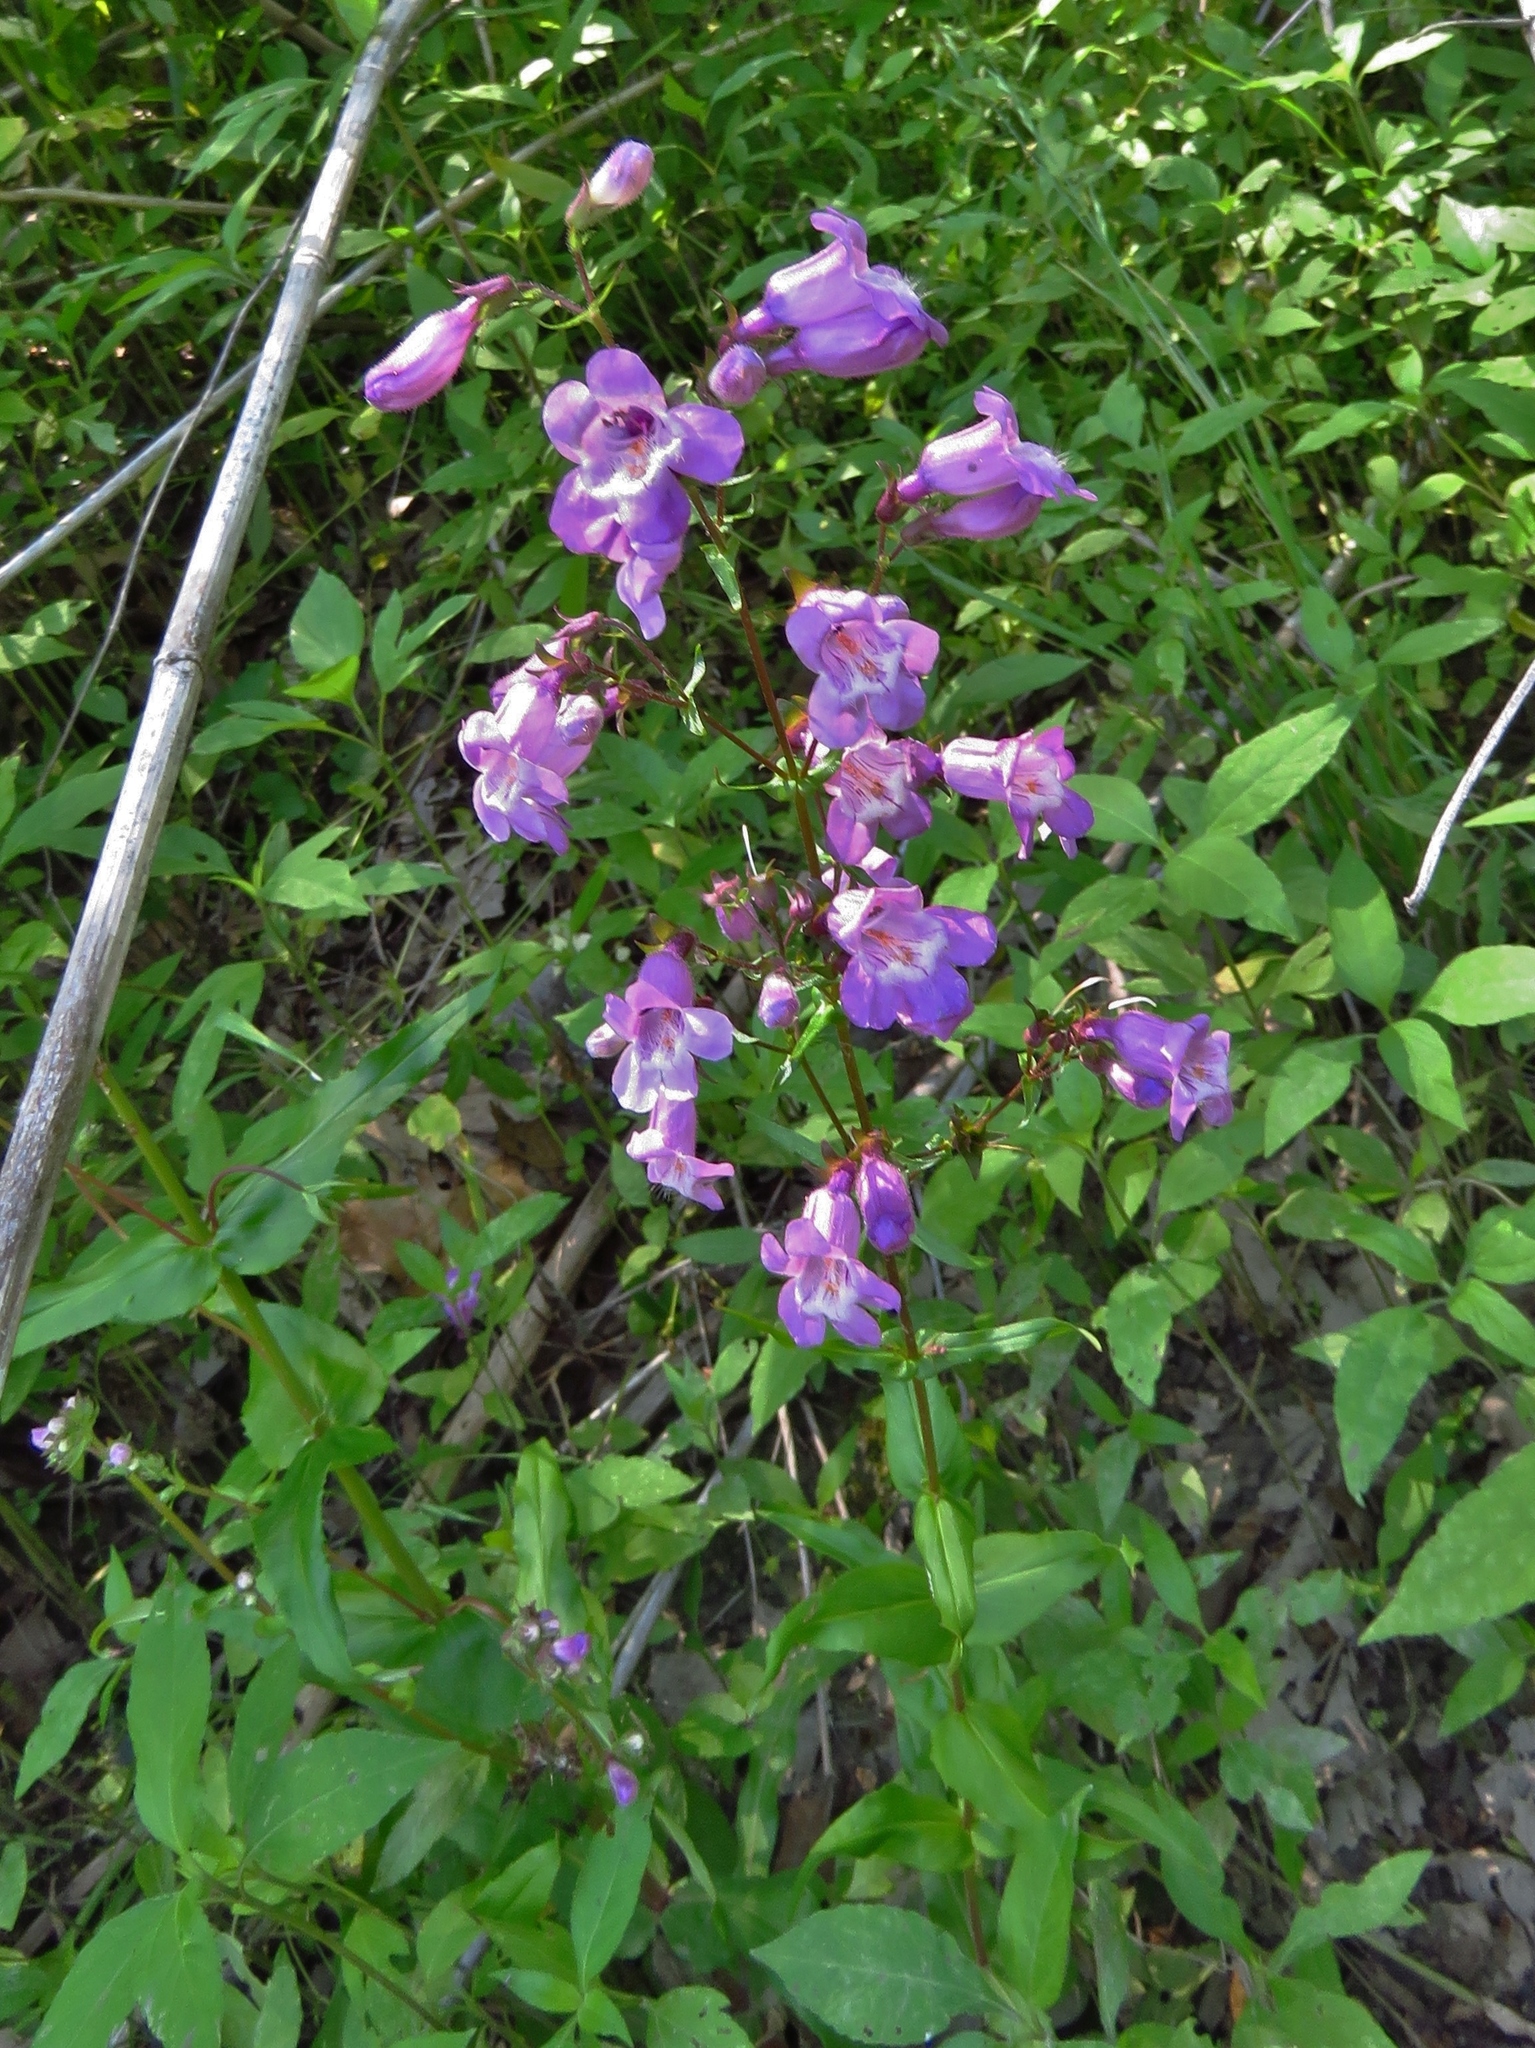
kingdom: Plantae
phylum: Tracheophyta
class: Magnoliopsida
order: Lamiales
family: Plantaginaceae
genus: Penstemon
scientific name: Penstemon tenuis
